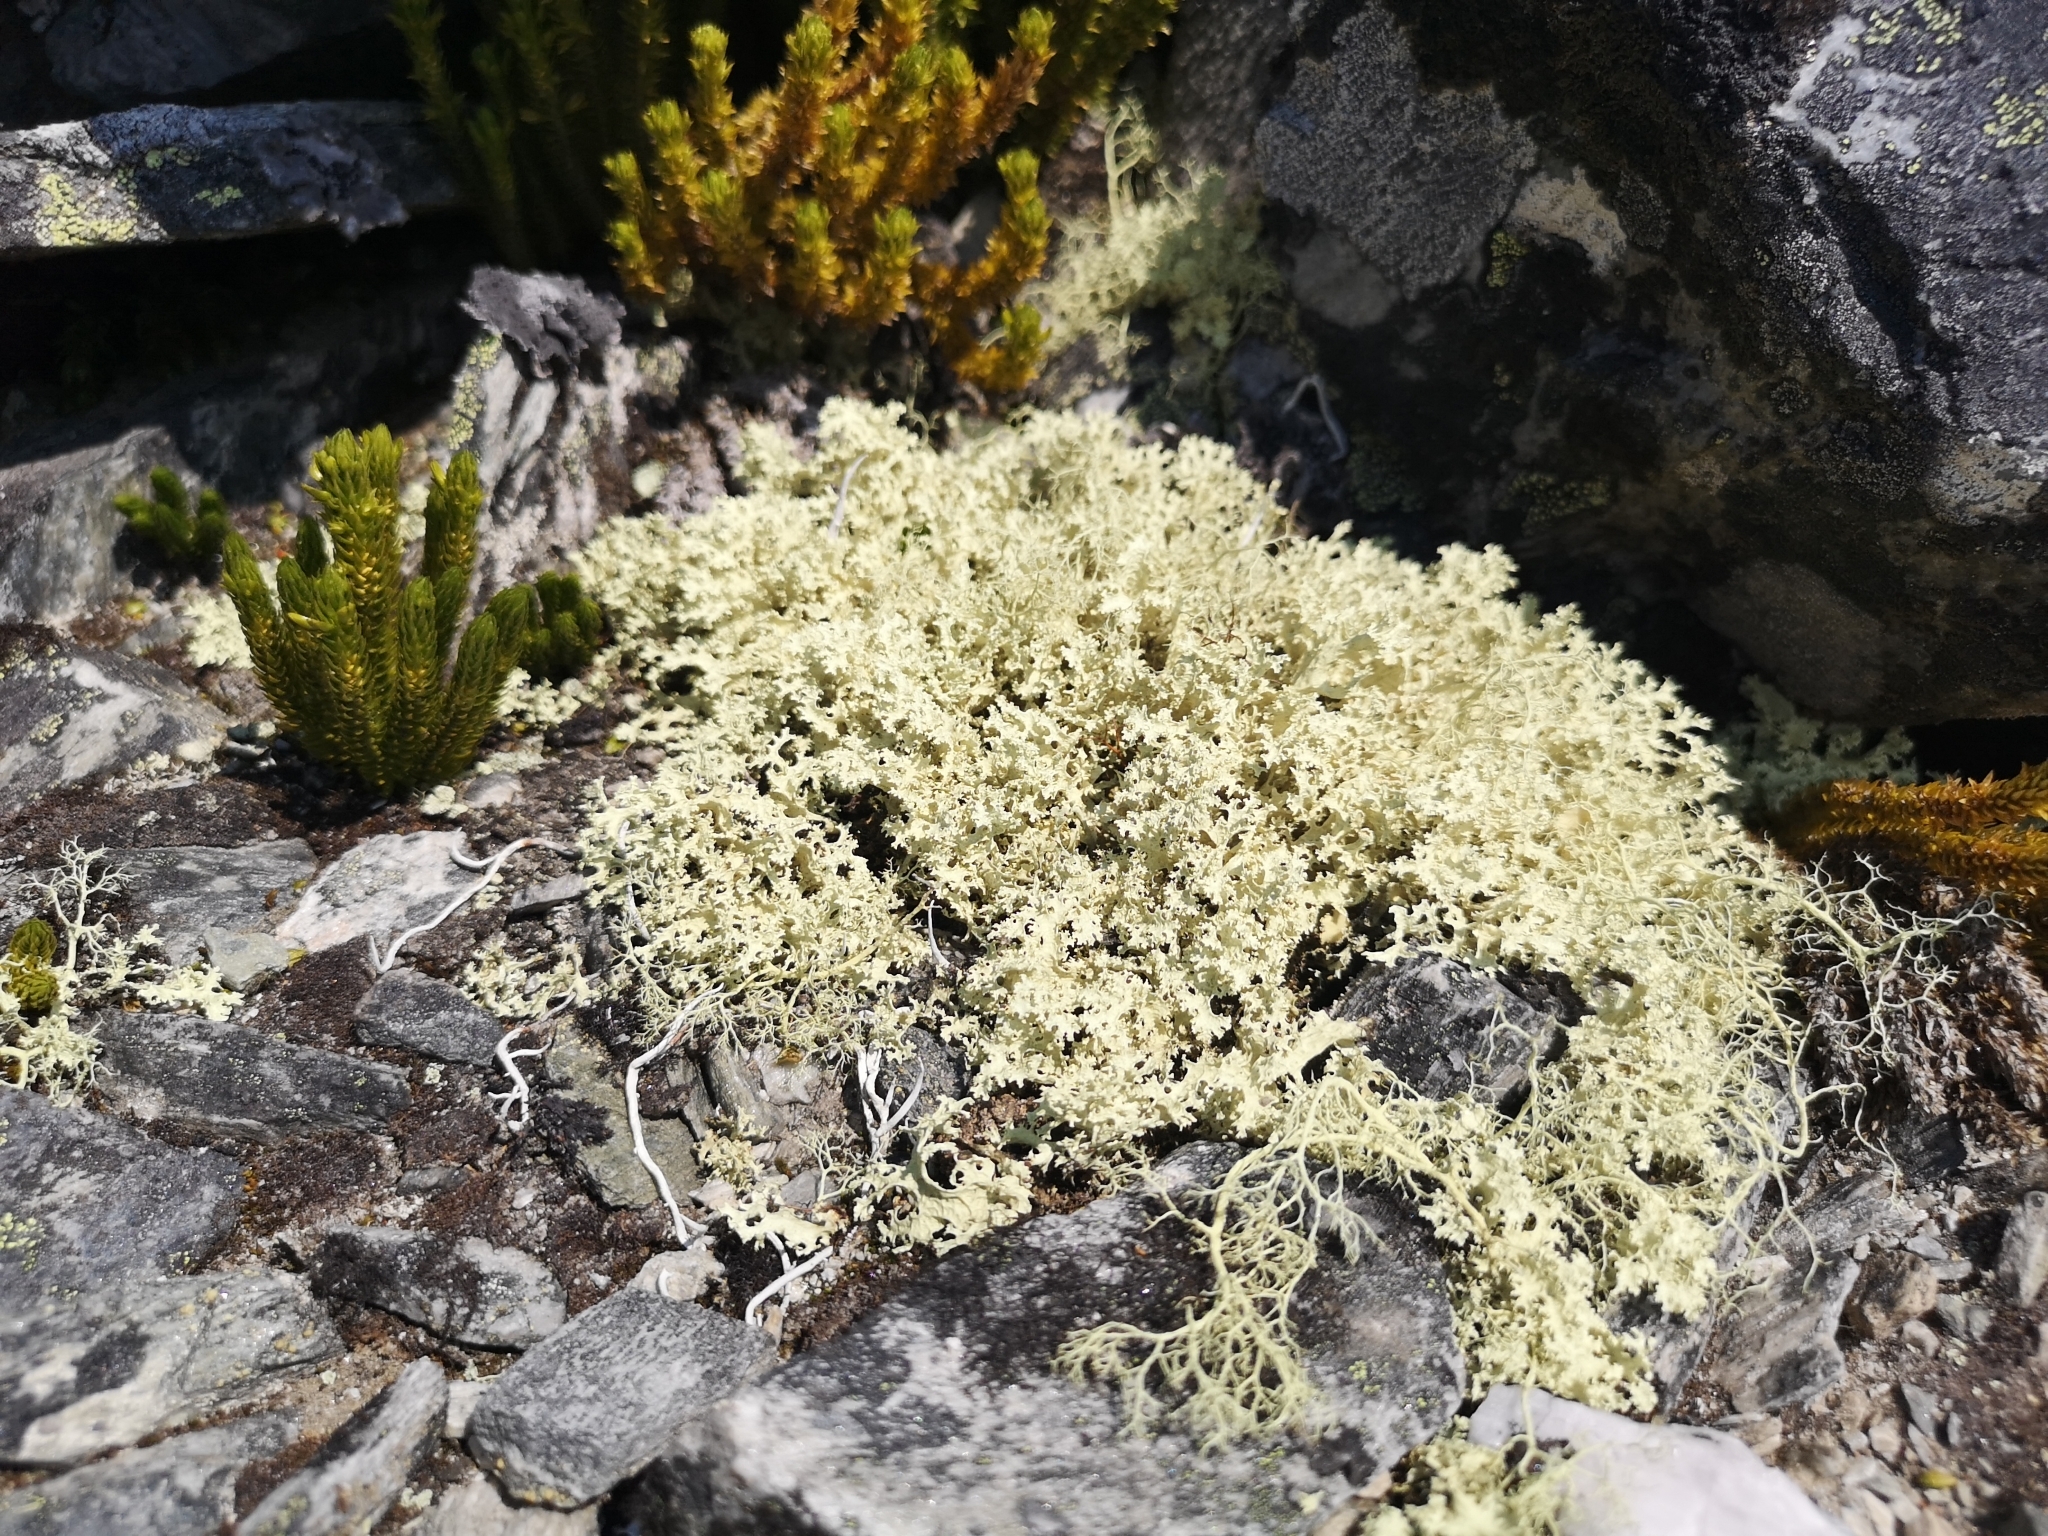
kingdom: Fungi
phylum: Ascomycota
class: Lecanoromycetes
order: Lecanorales
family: Parmeliaceae
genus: Nephromopsis
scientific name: Nephromopsis nivalis
